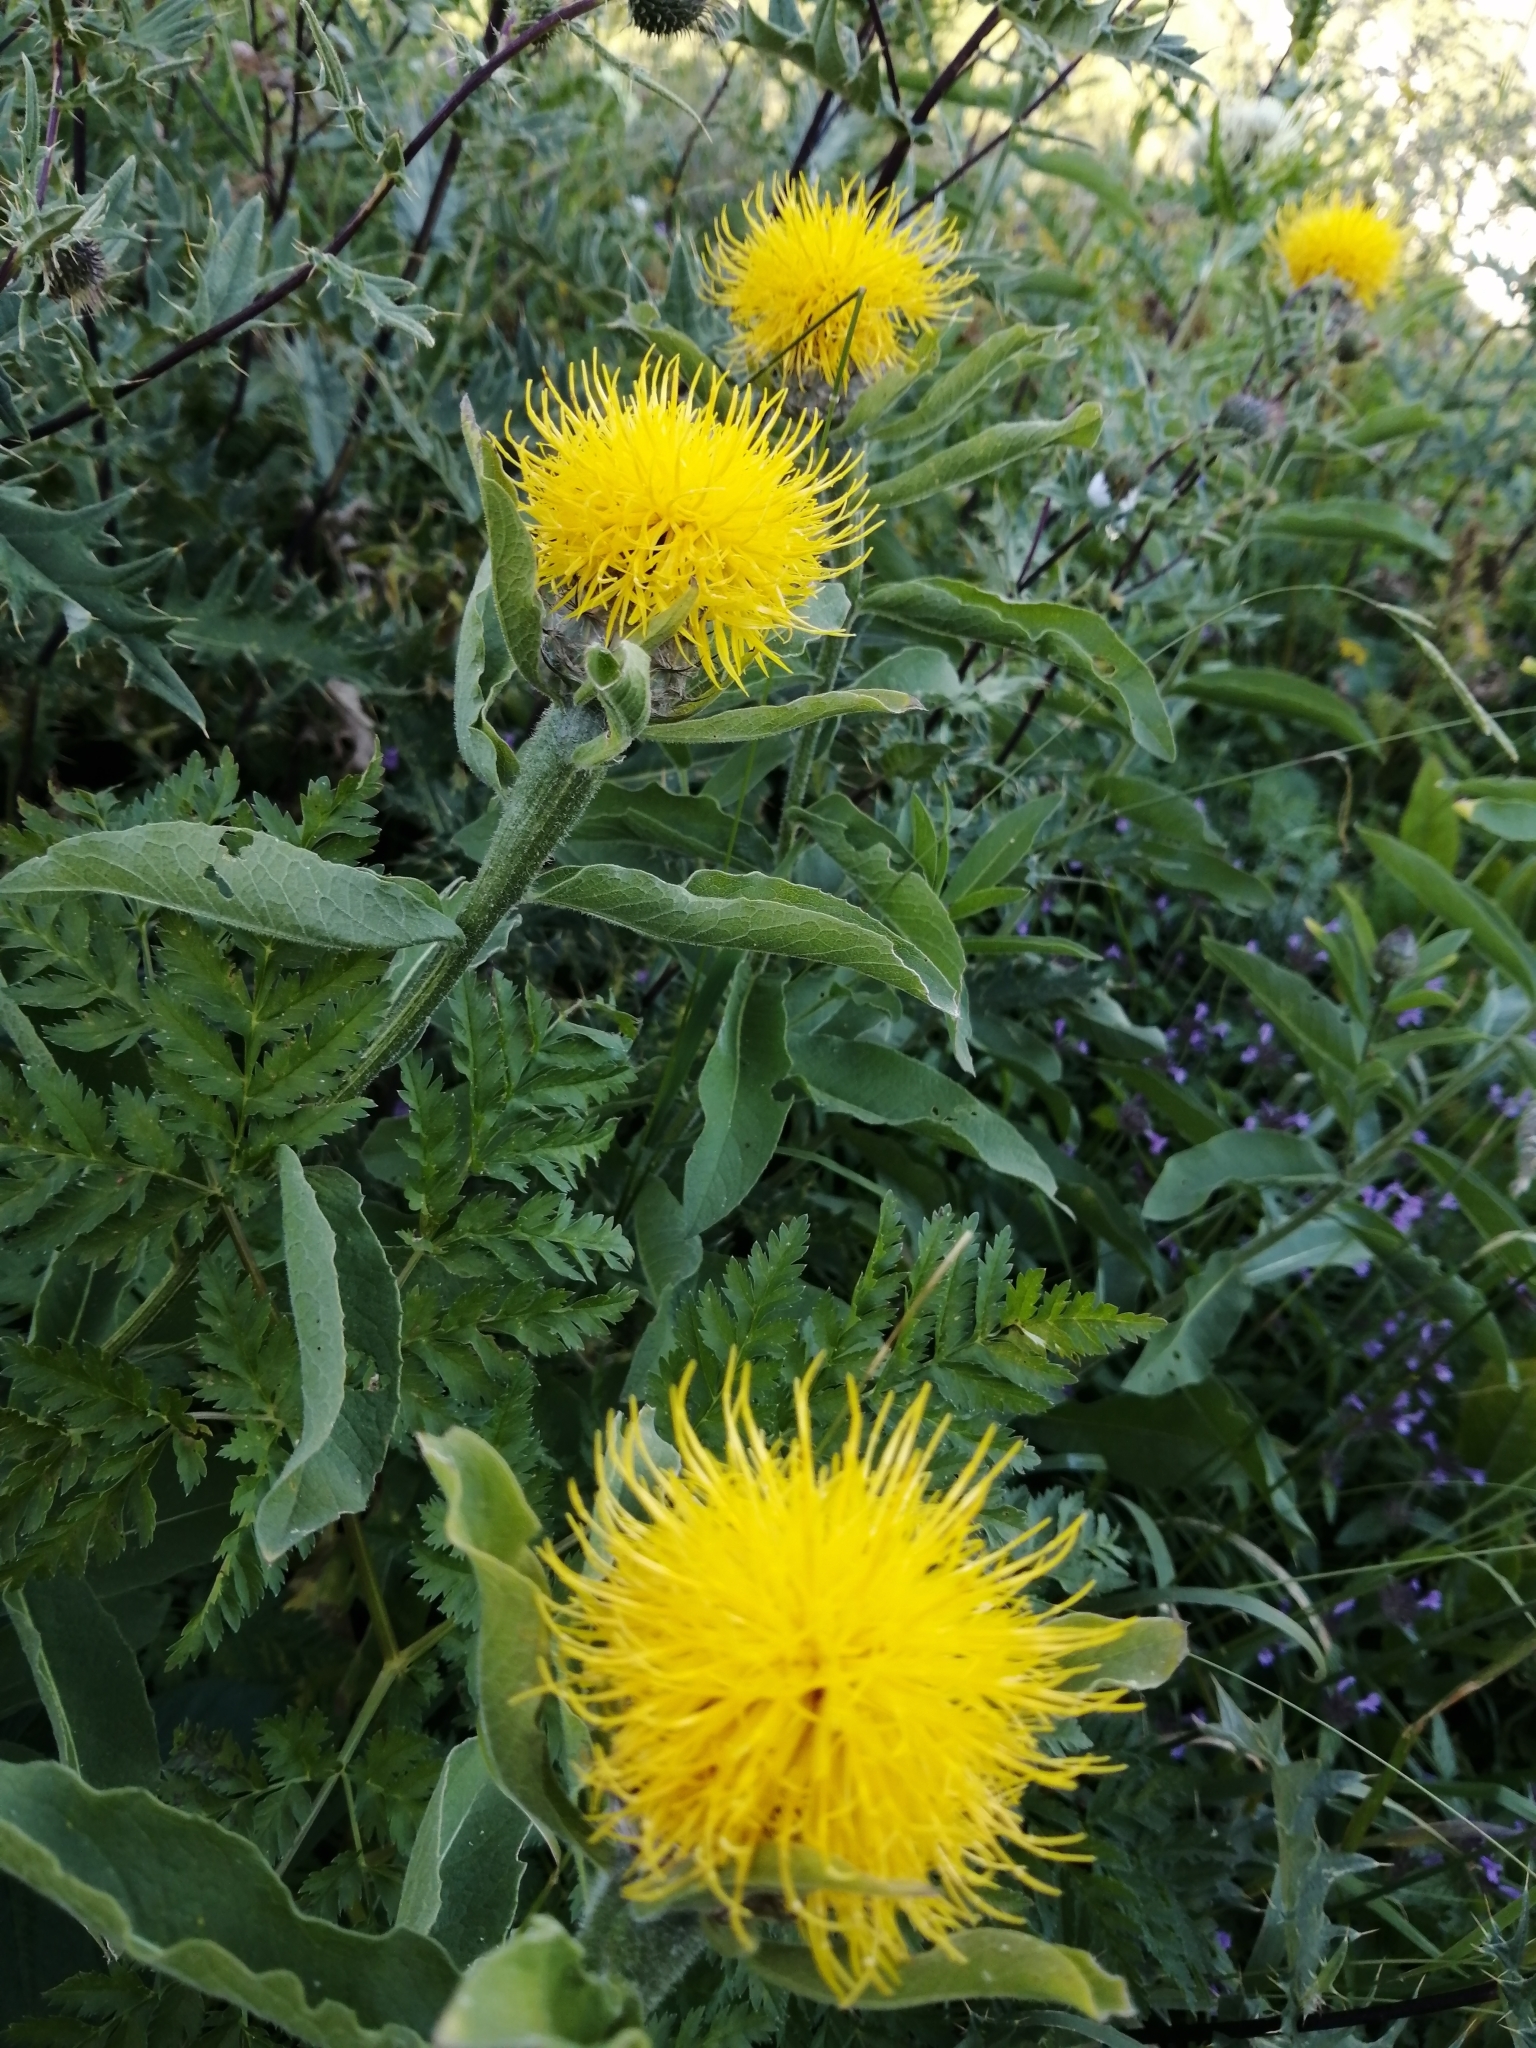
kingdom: Plantae
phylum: Tracheophyta
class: Magnoliopsida
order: Asterales
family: Asteraceae
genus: Centaurea
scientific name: Centaurea macrocephala
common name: Big-head knapweed
